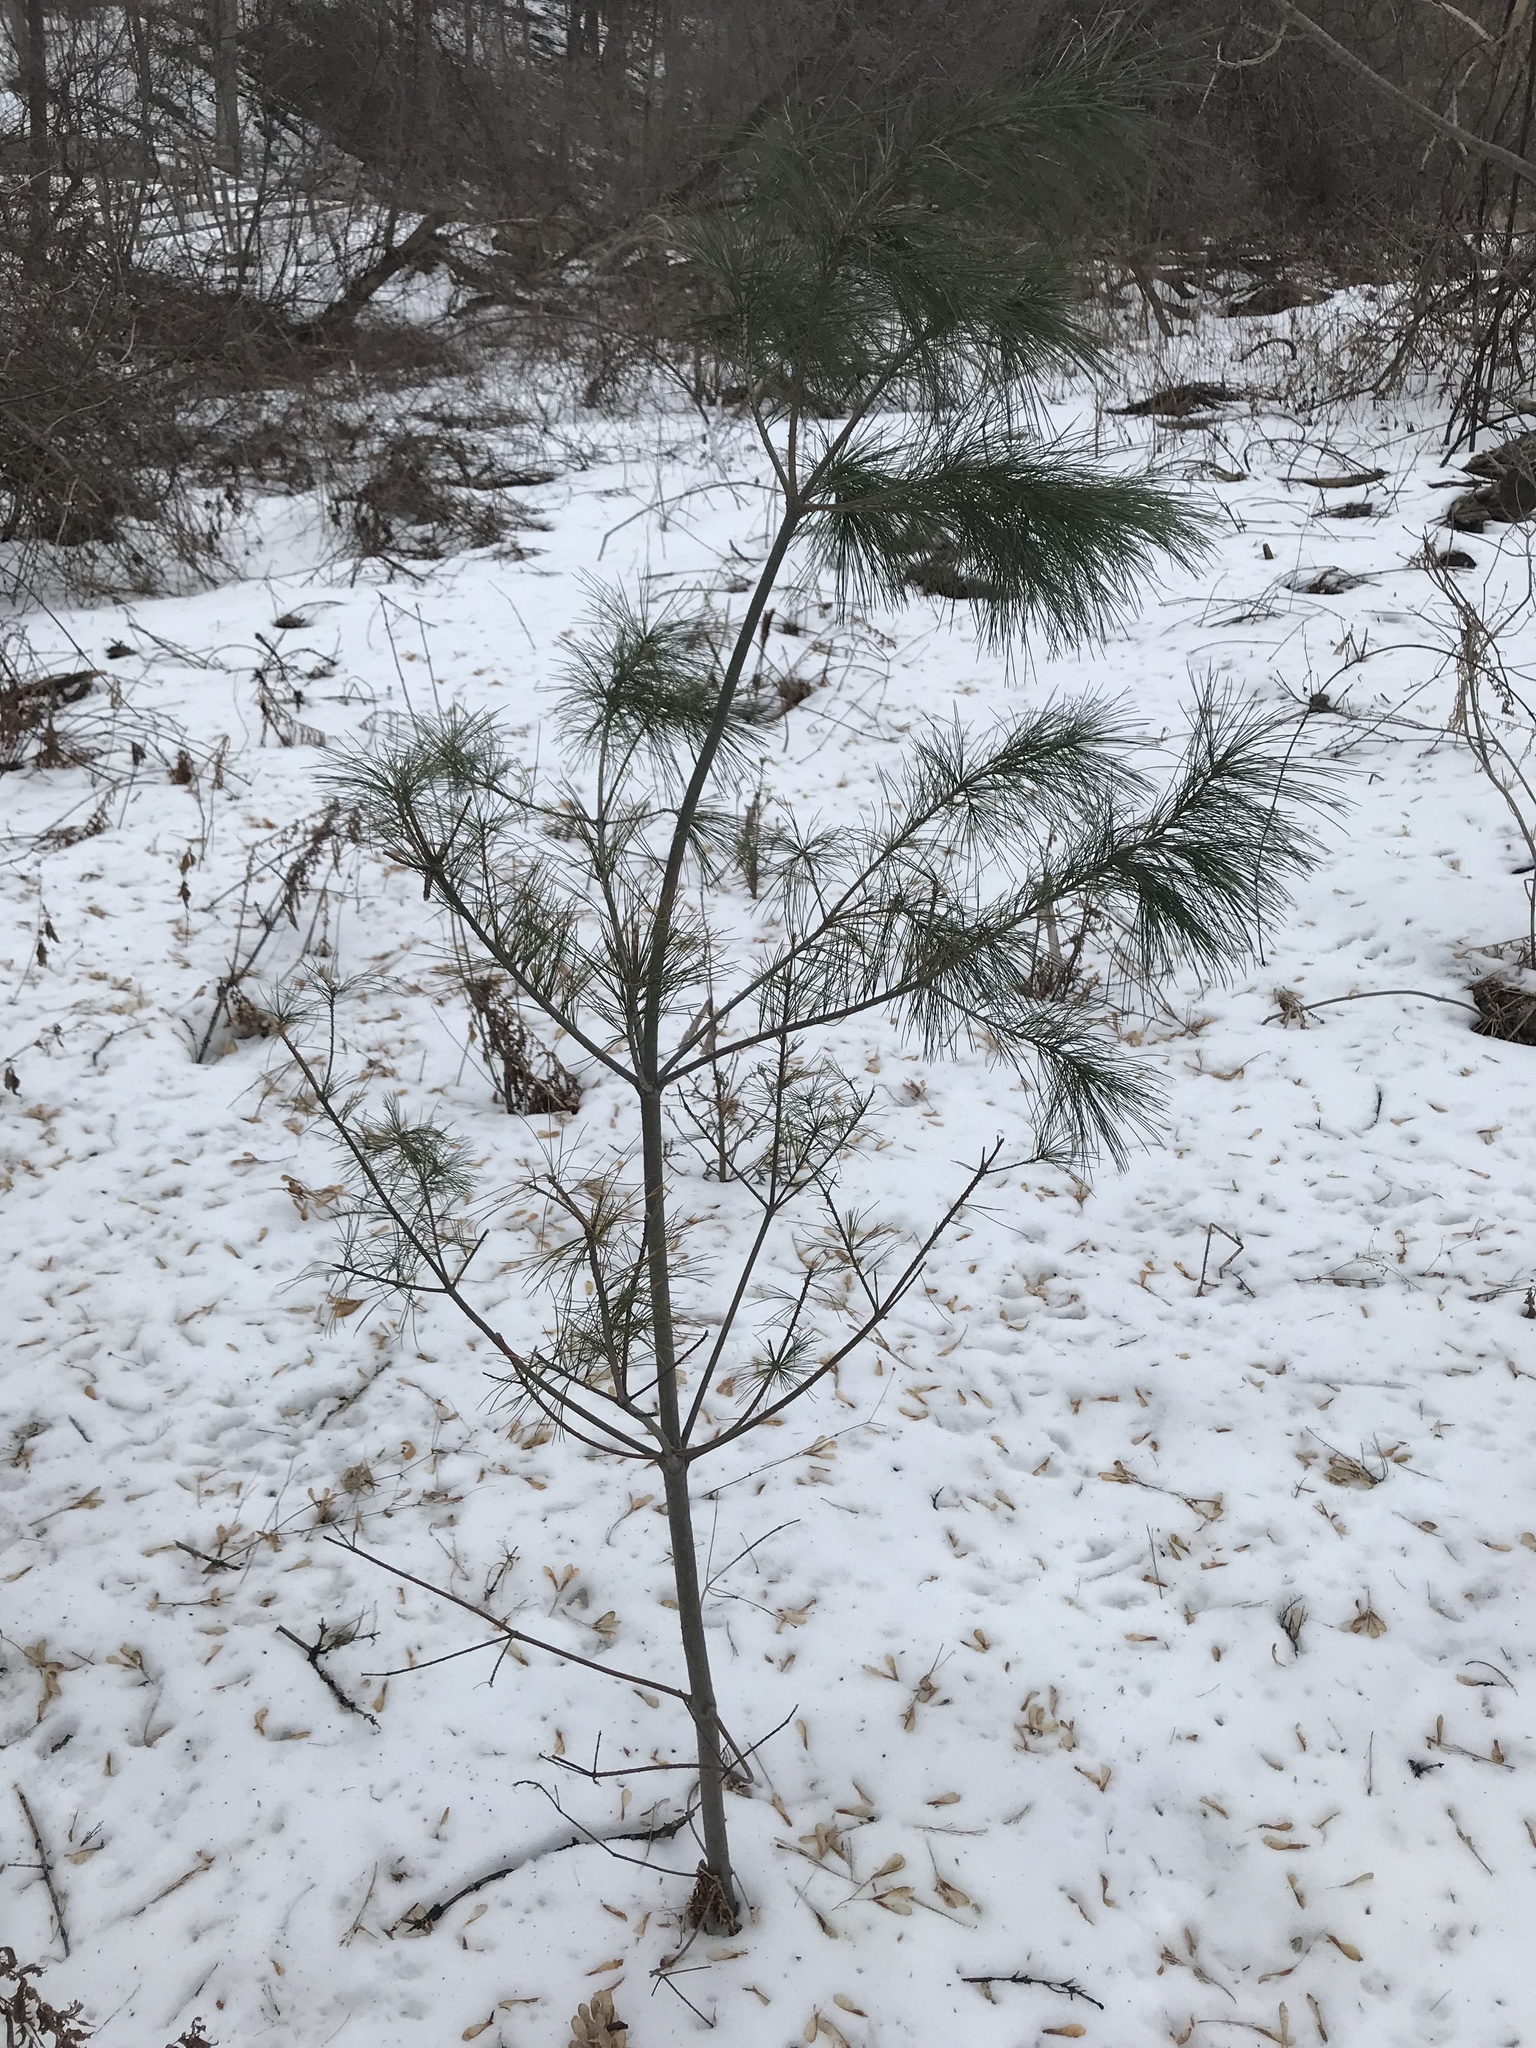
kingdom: Plantae
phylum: Tracheophyta
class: Pinopsida
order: Pinales
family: Pinaceae
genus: Pinus
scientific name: Pinus strobus
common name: Weymouth pine
